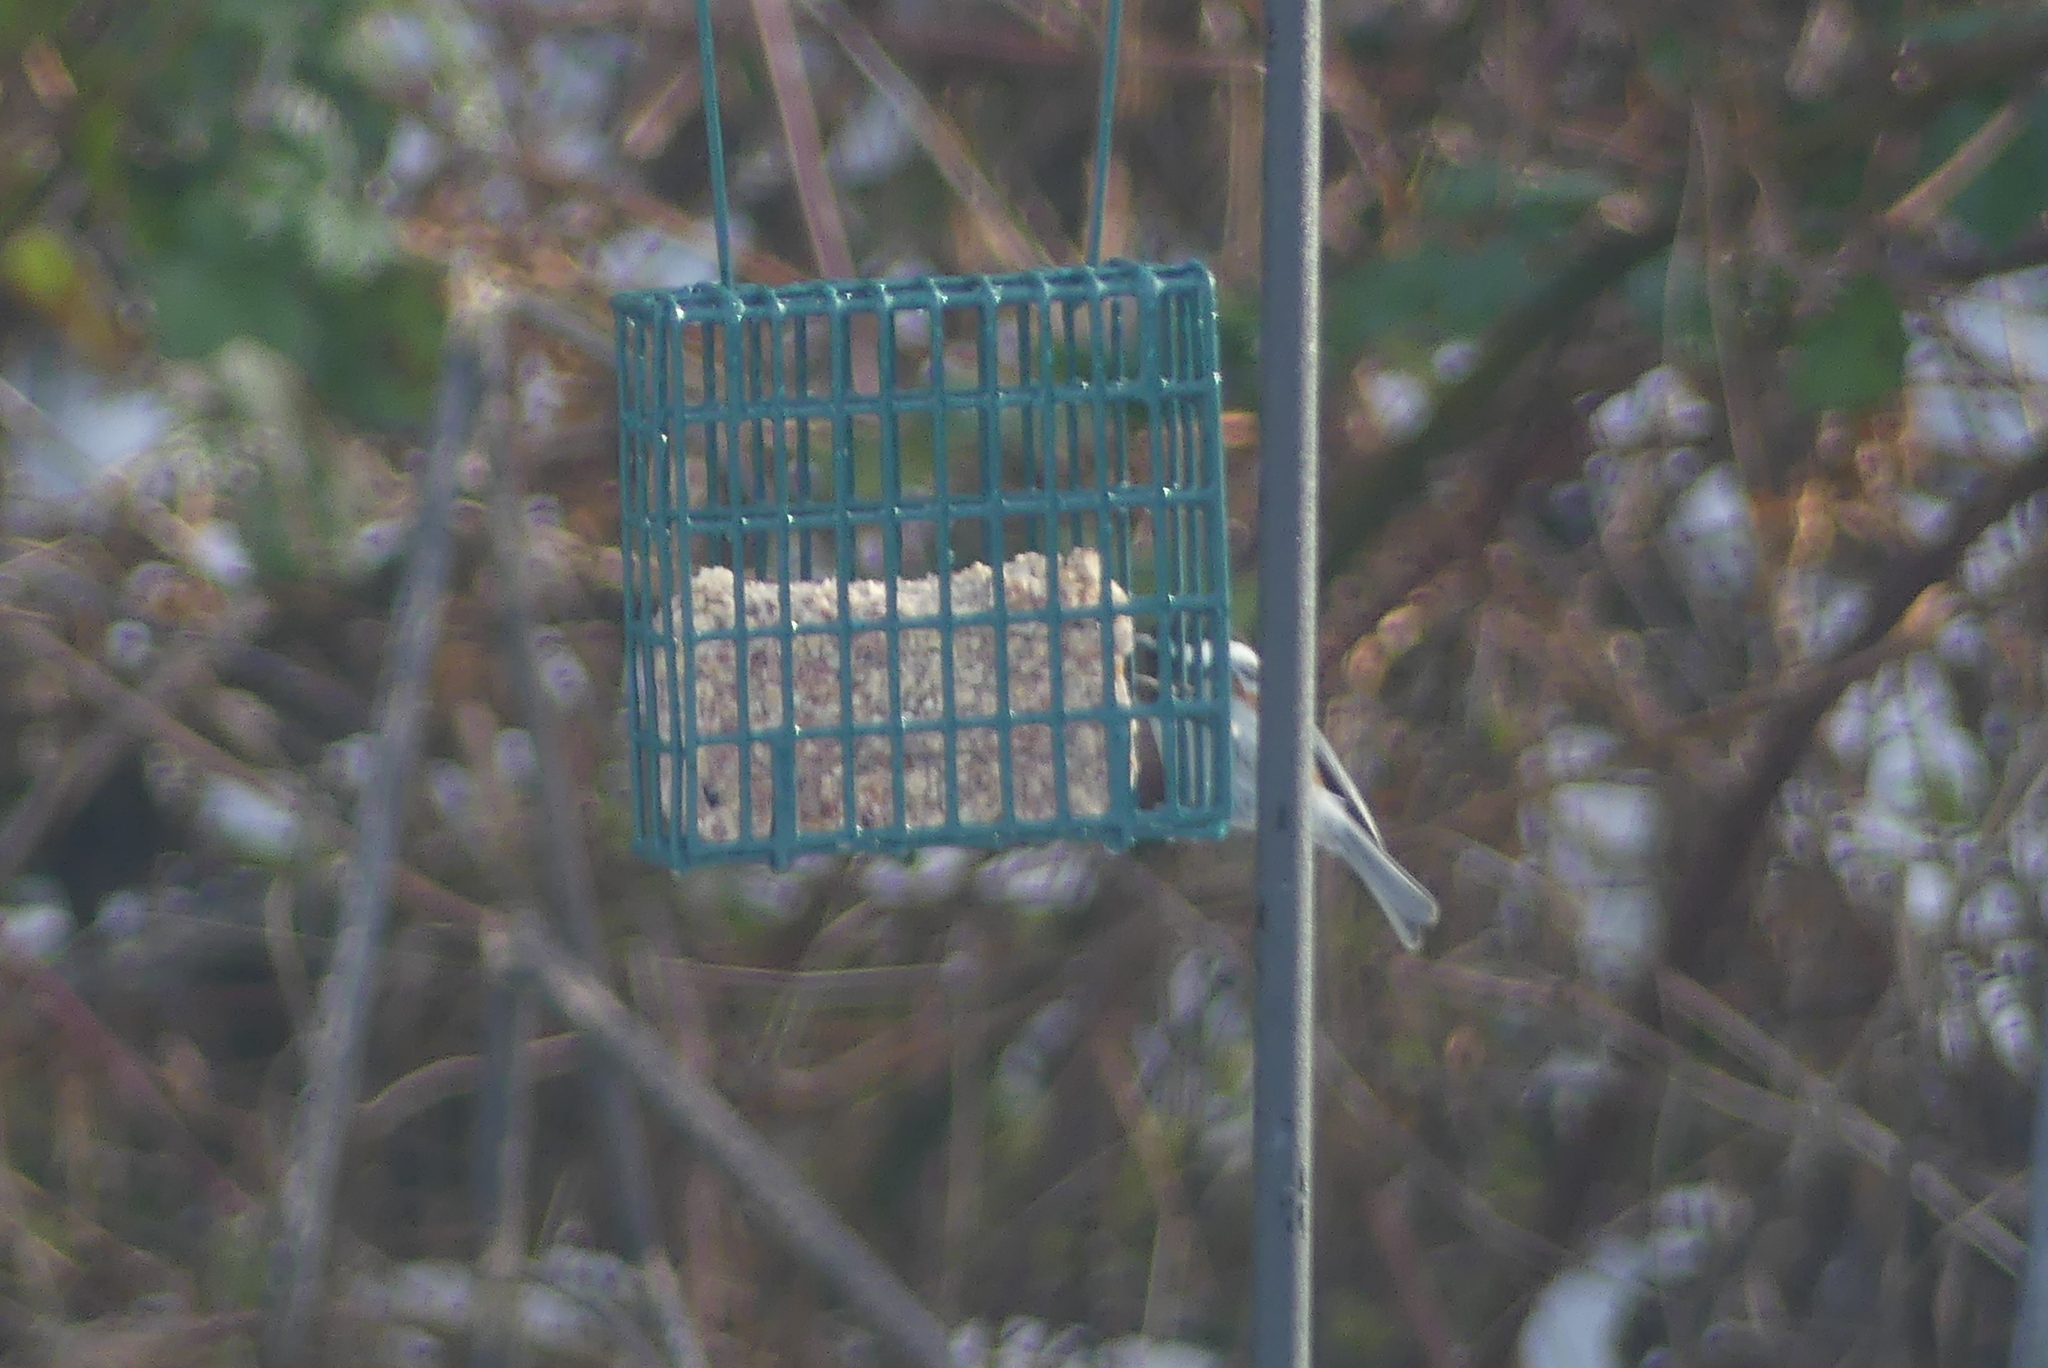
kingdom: Animalia
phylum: Chordata
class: Aves
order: Passeriformes
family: Paridae
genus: Poecile
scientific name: Poecile rufescens
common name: Chestnut-backed chickadee
